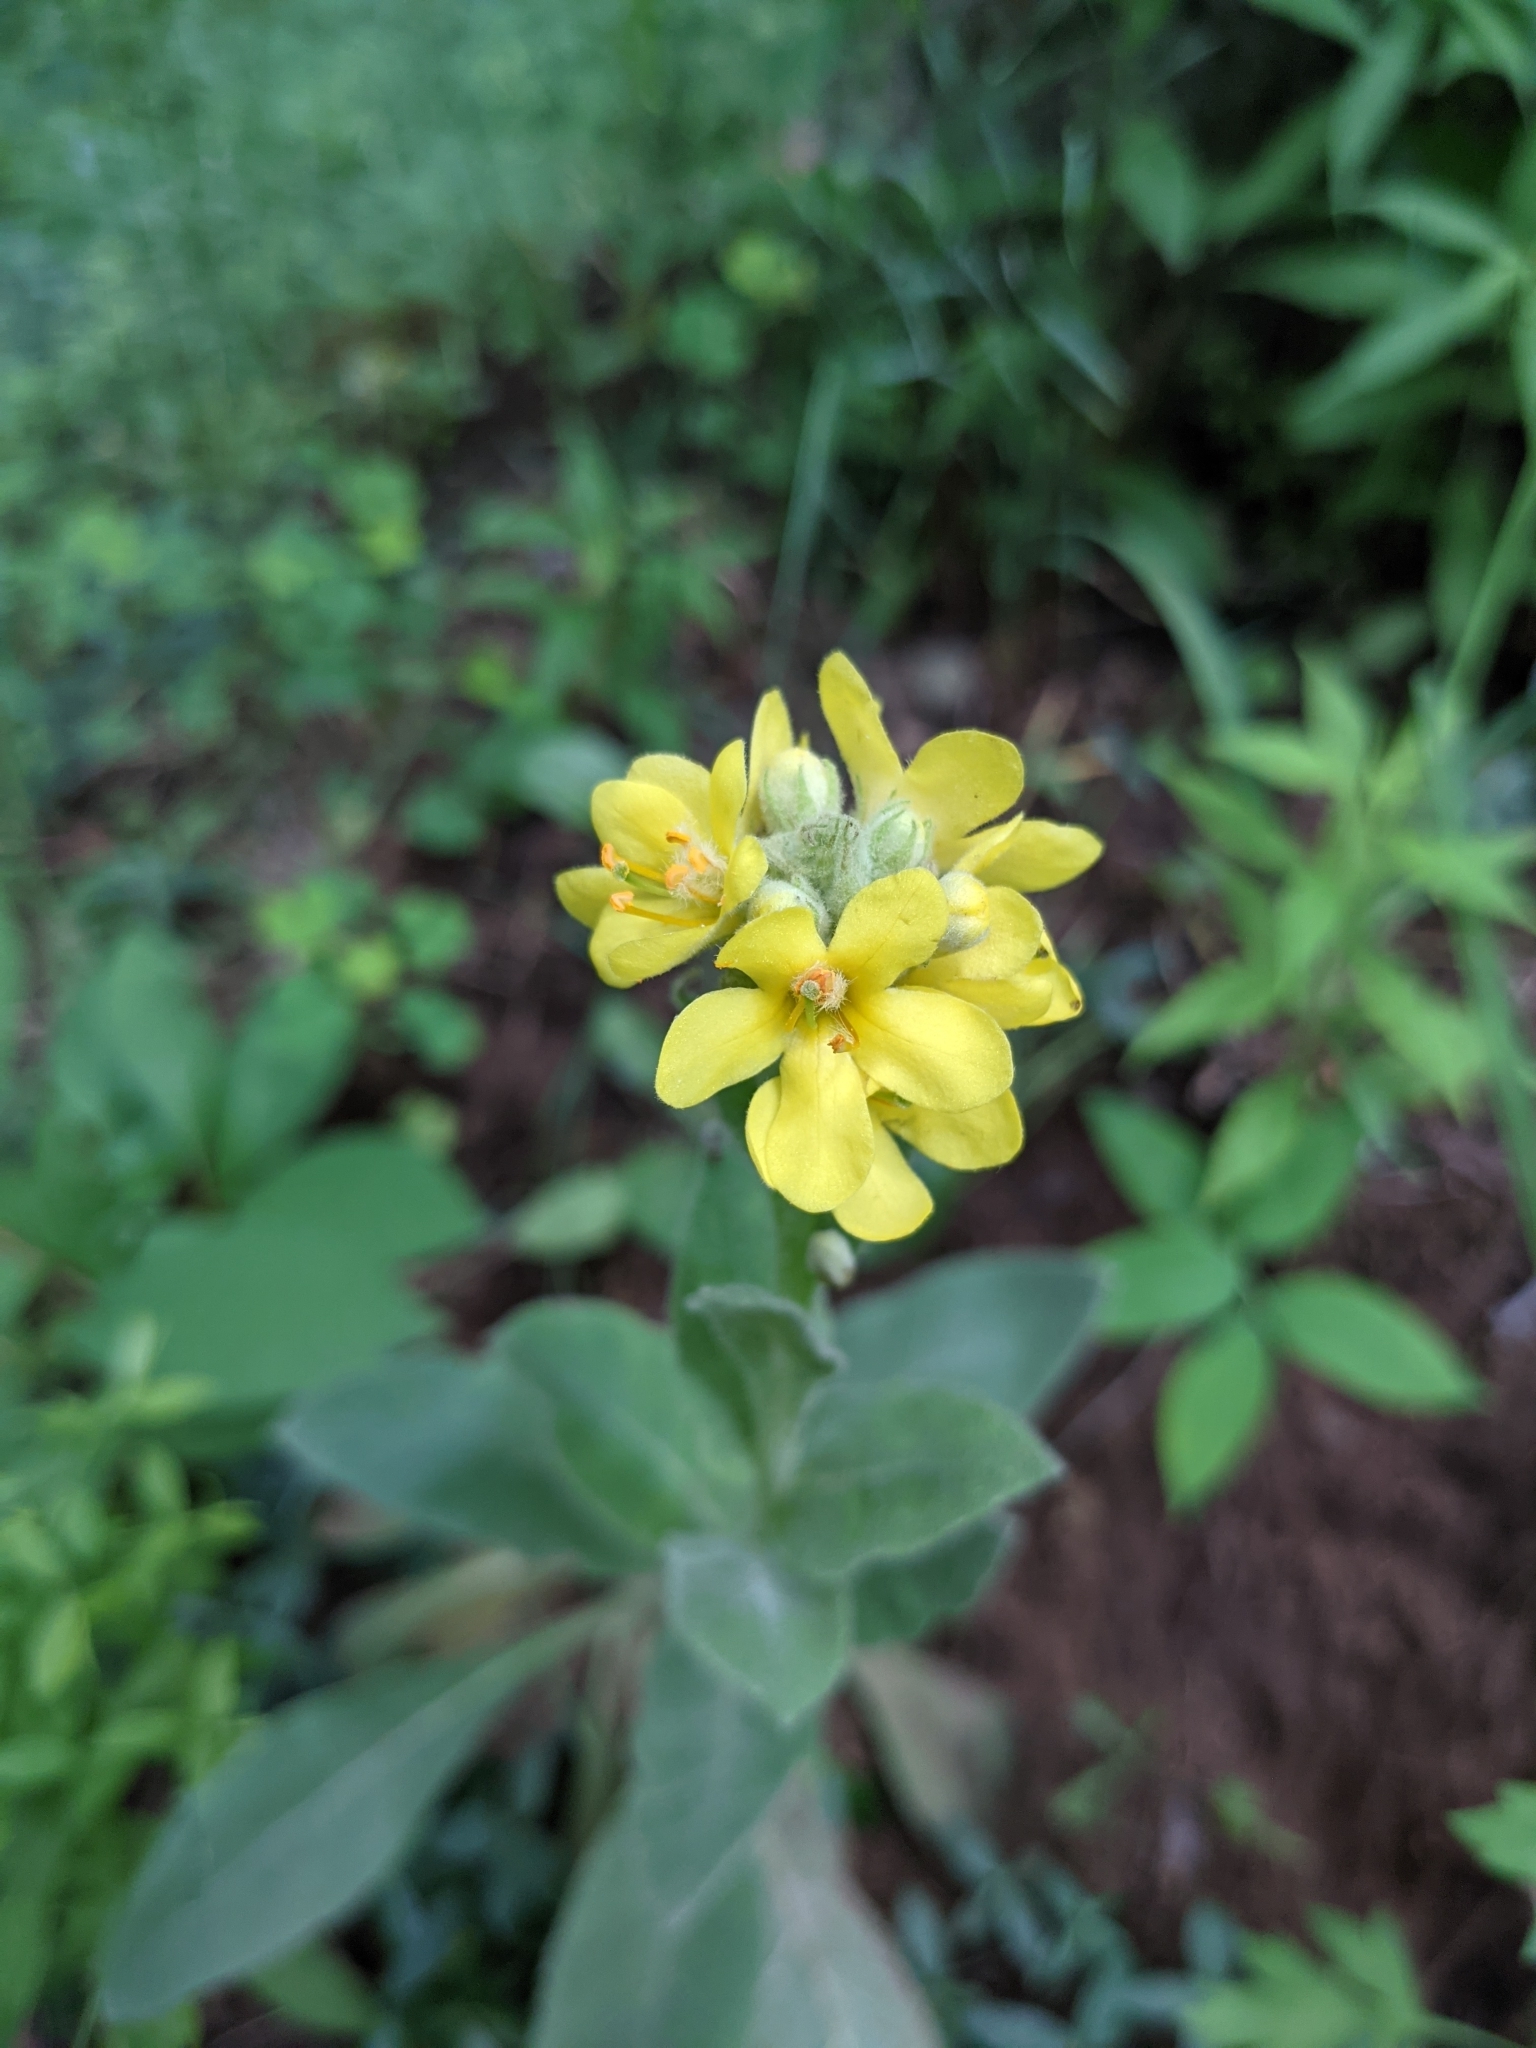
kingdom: Plantae
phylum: Tracheophyta
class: Magnoliopsida
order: Lamiales
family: Scrophulariaceae
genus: Verbascum
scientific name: Verbascum thapsus
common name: Common mullein
